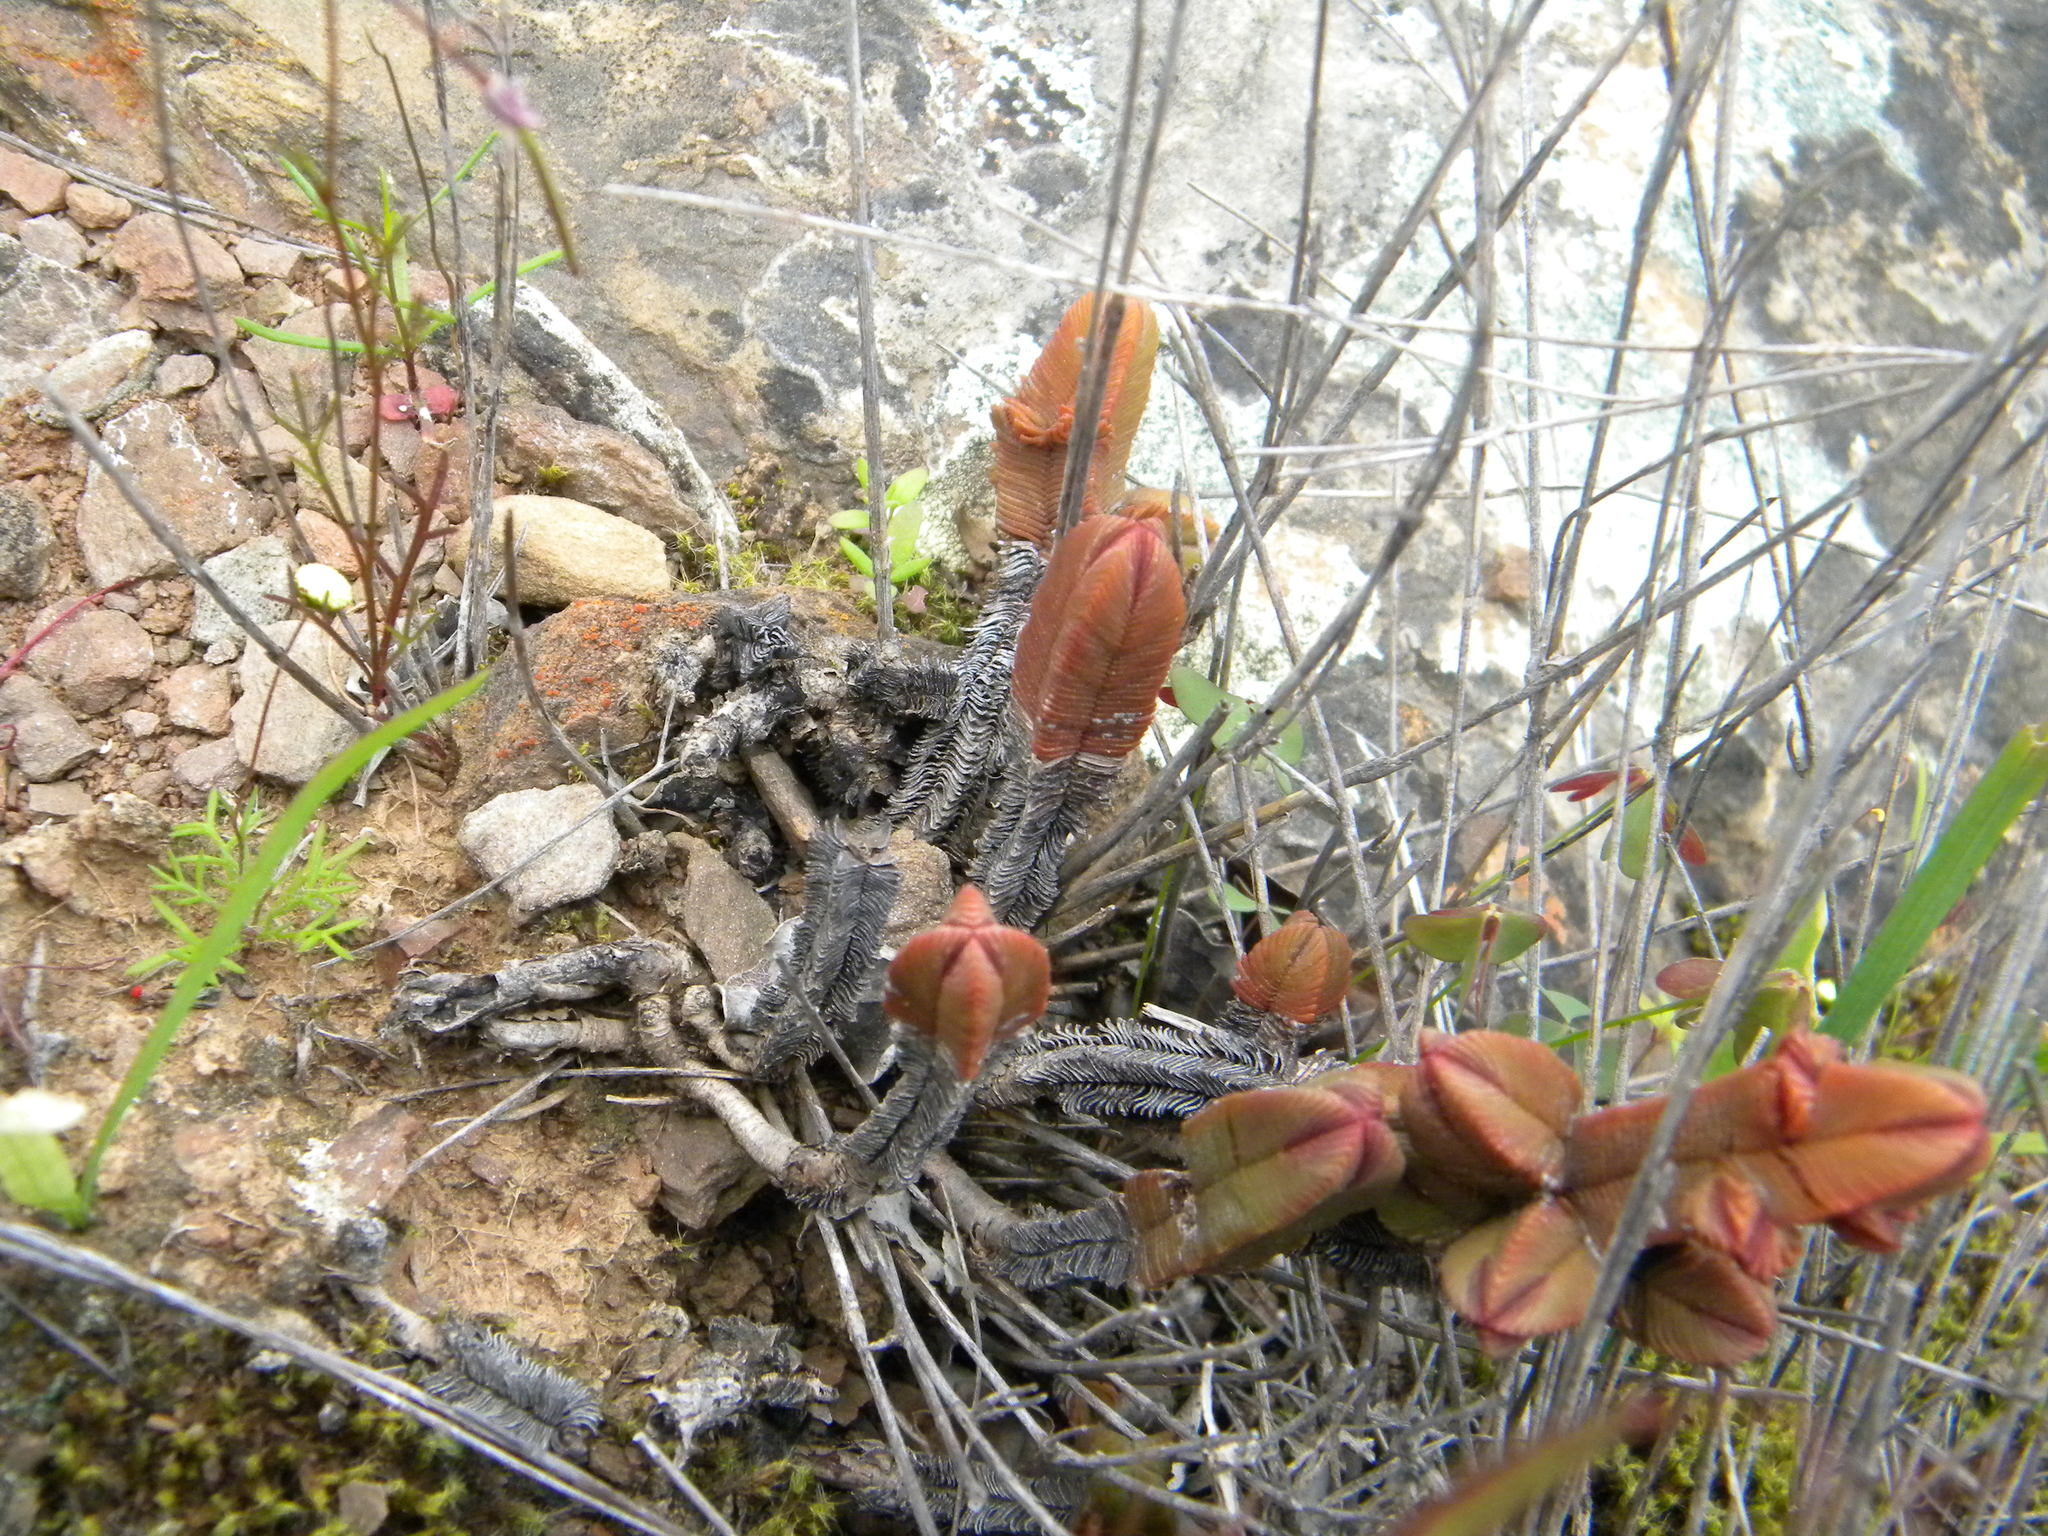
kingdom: Plantae
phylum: Tracheophyta
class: Magnoliopsida
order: Saxifragales
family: Crassulaceae
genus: Crassula
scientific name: Crassula pyramidalis
